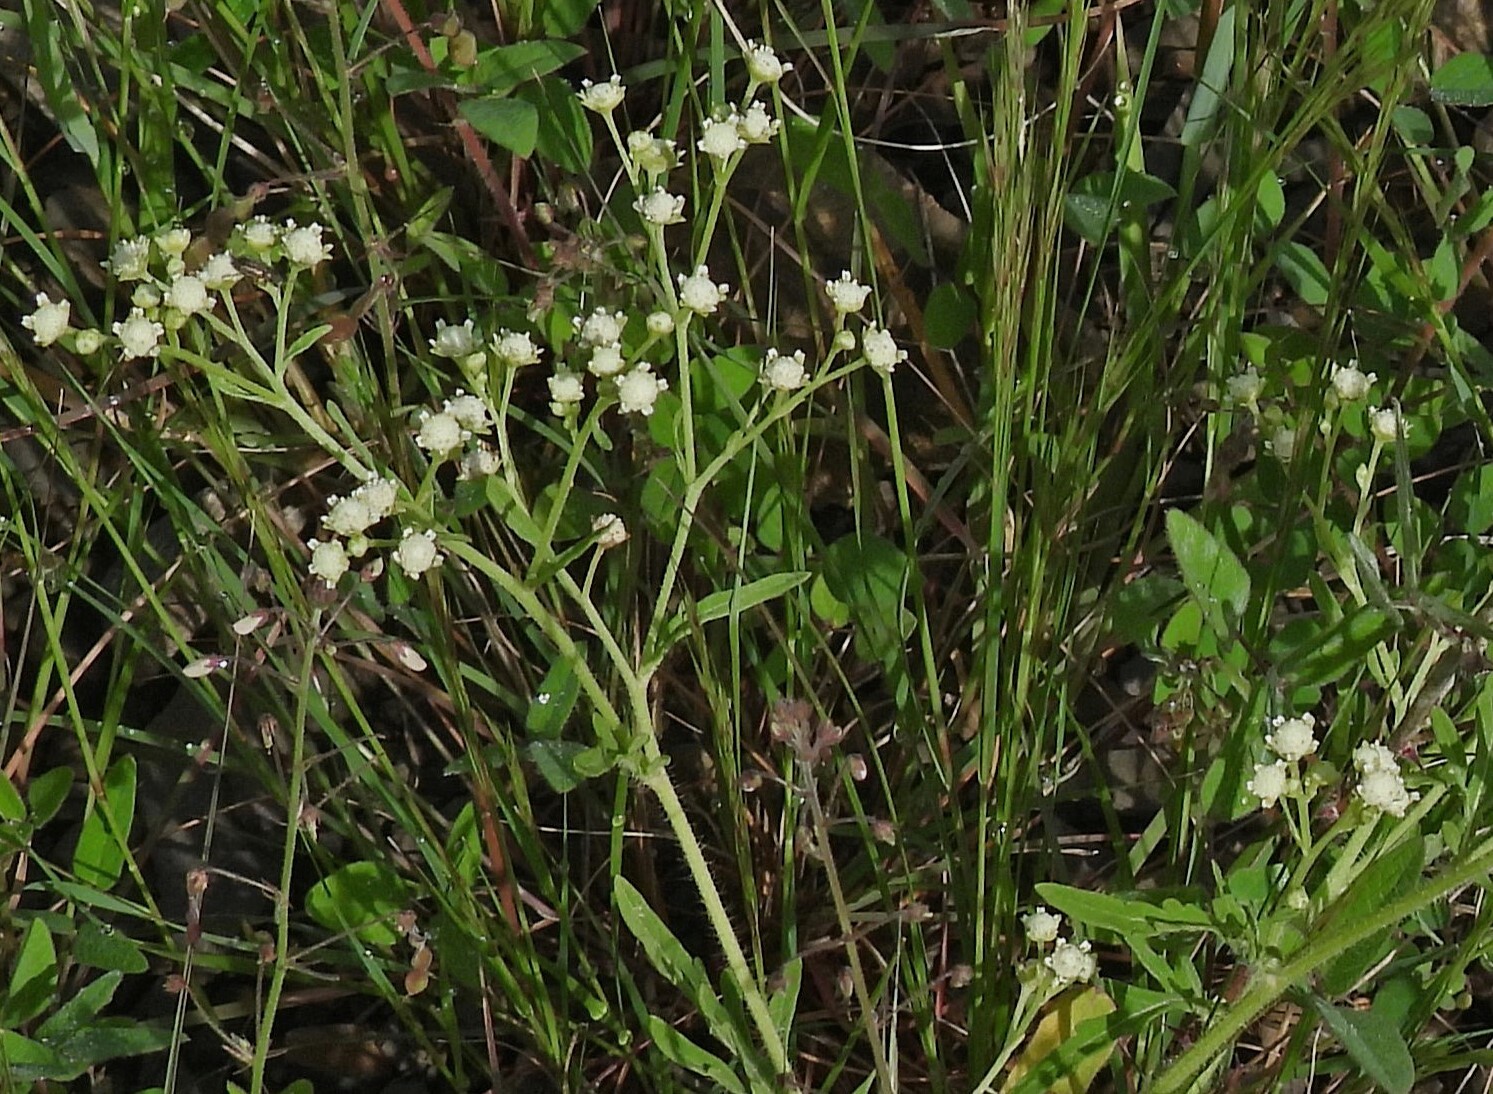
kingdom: Plantae
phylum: Tracheophyta
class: Magnoliopsida
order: Asterales
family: Asteraceae
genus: Parthenium
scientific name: Parthenium hysterophorus
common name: Santa maria feverfew
